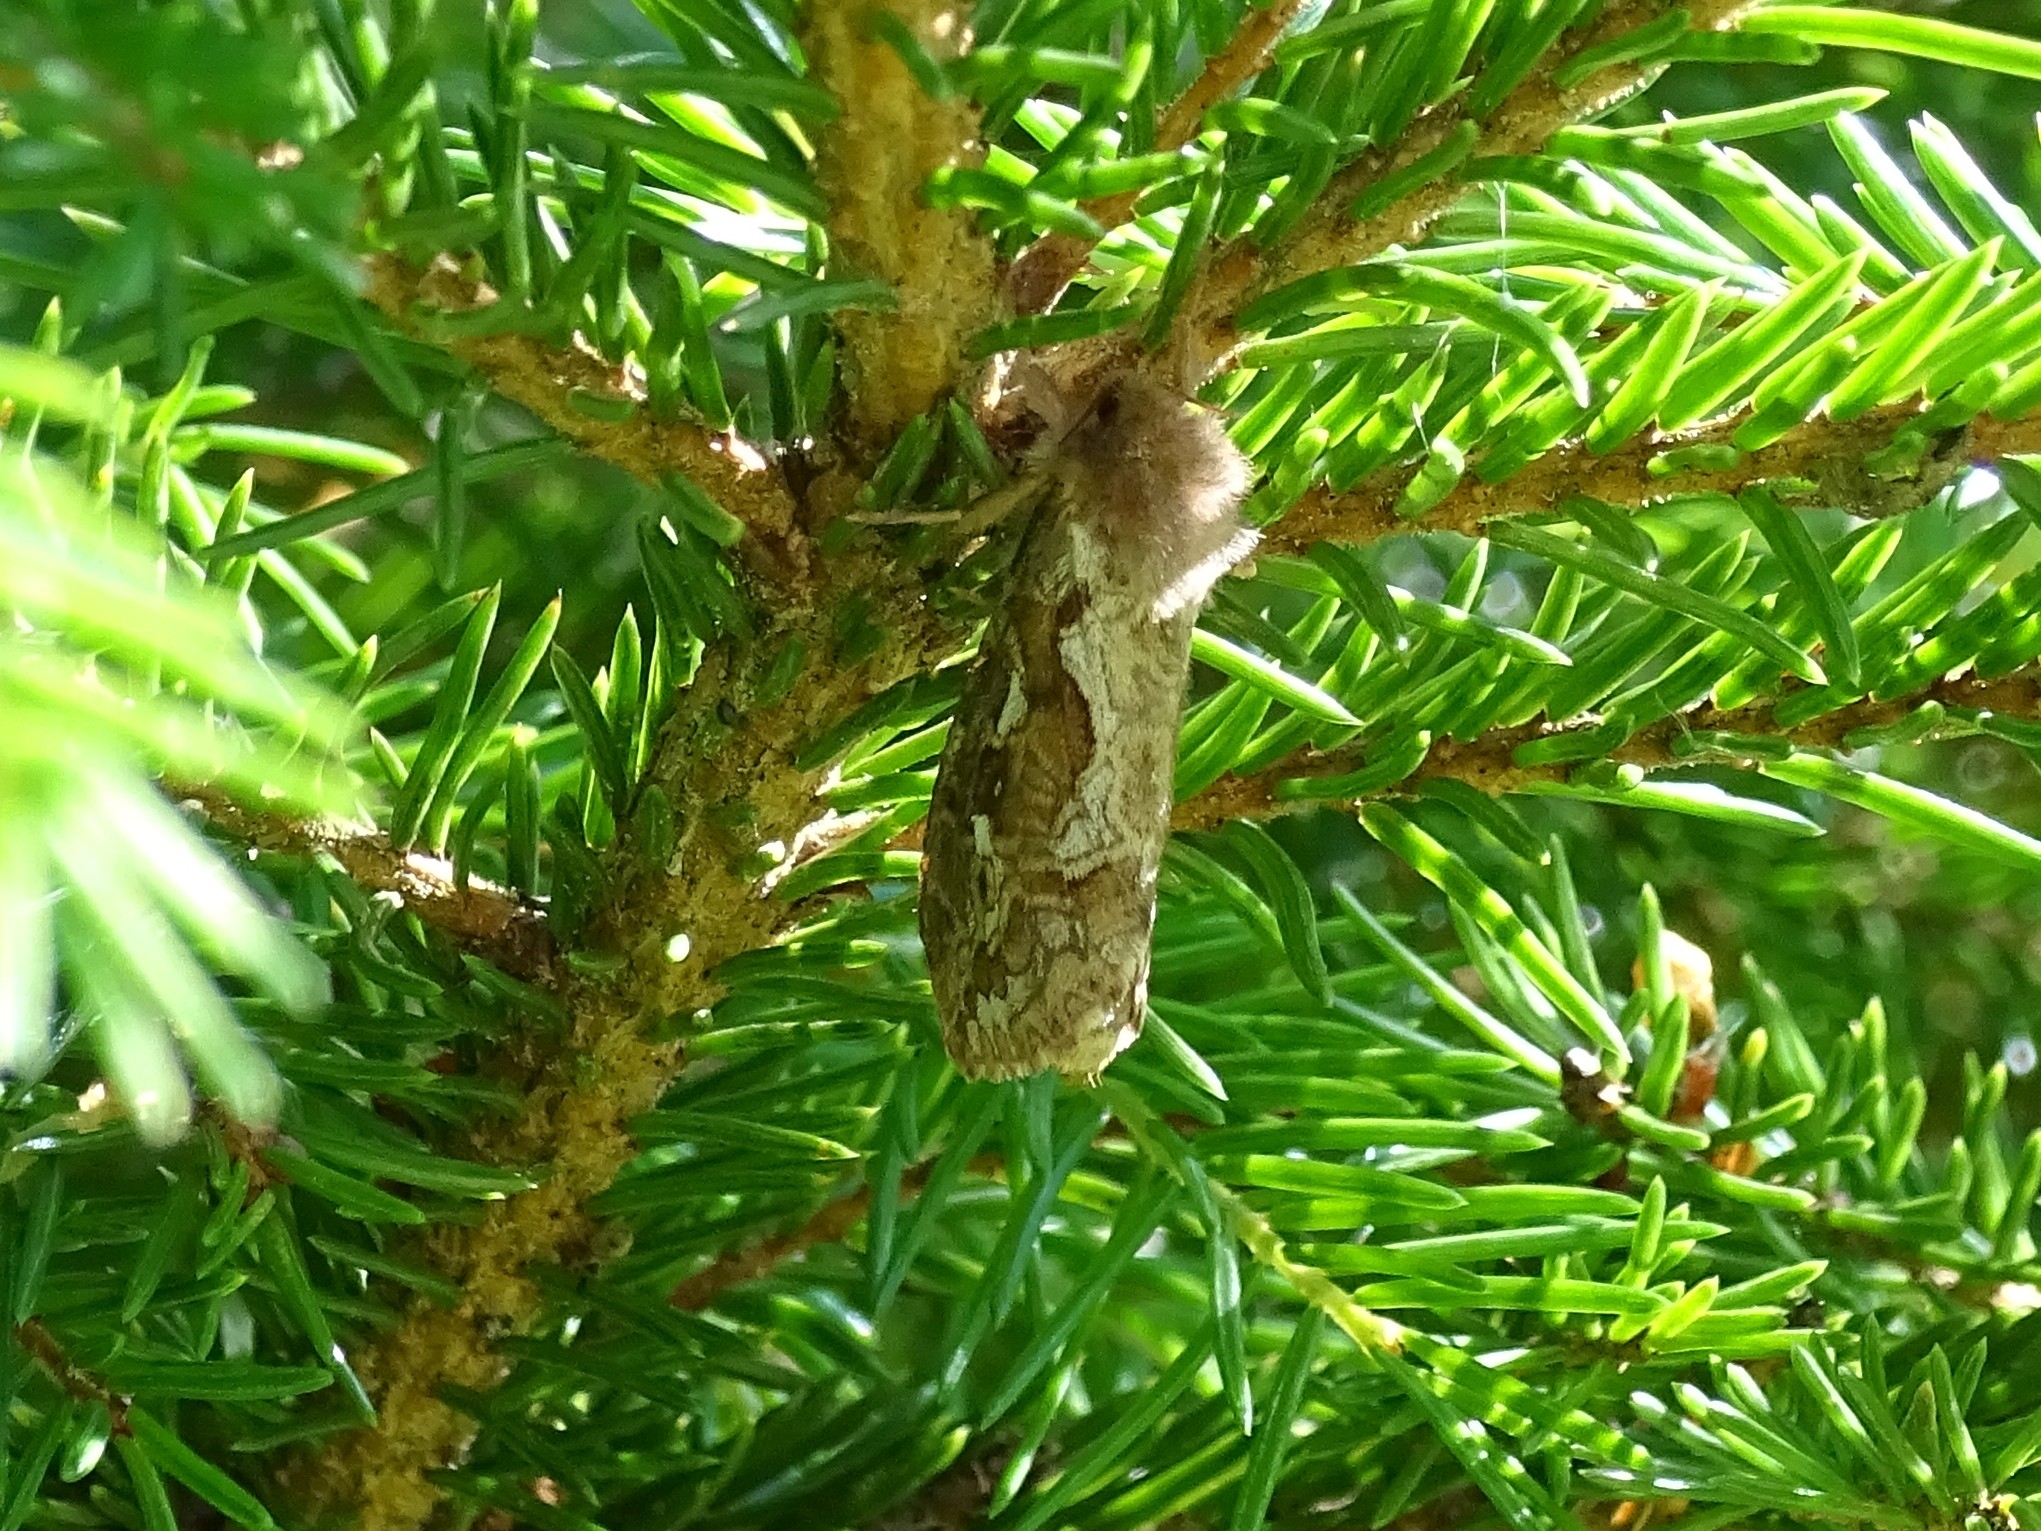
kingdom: Animalia
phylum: Arthropoda
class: Insecta
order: Lepidoptera
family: Hepialidae
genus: Korscheltellus
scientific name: Korscheltellus fusconebulosus
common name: Map-winged swift
